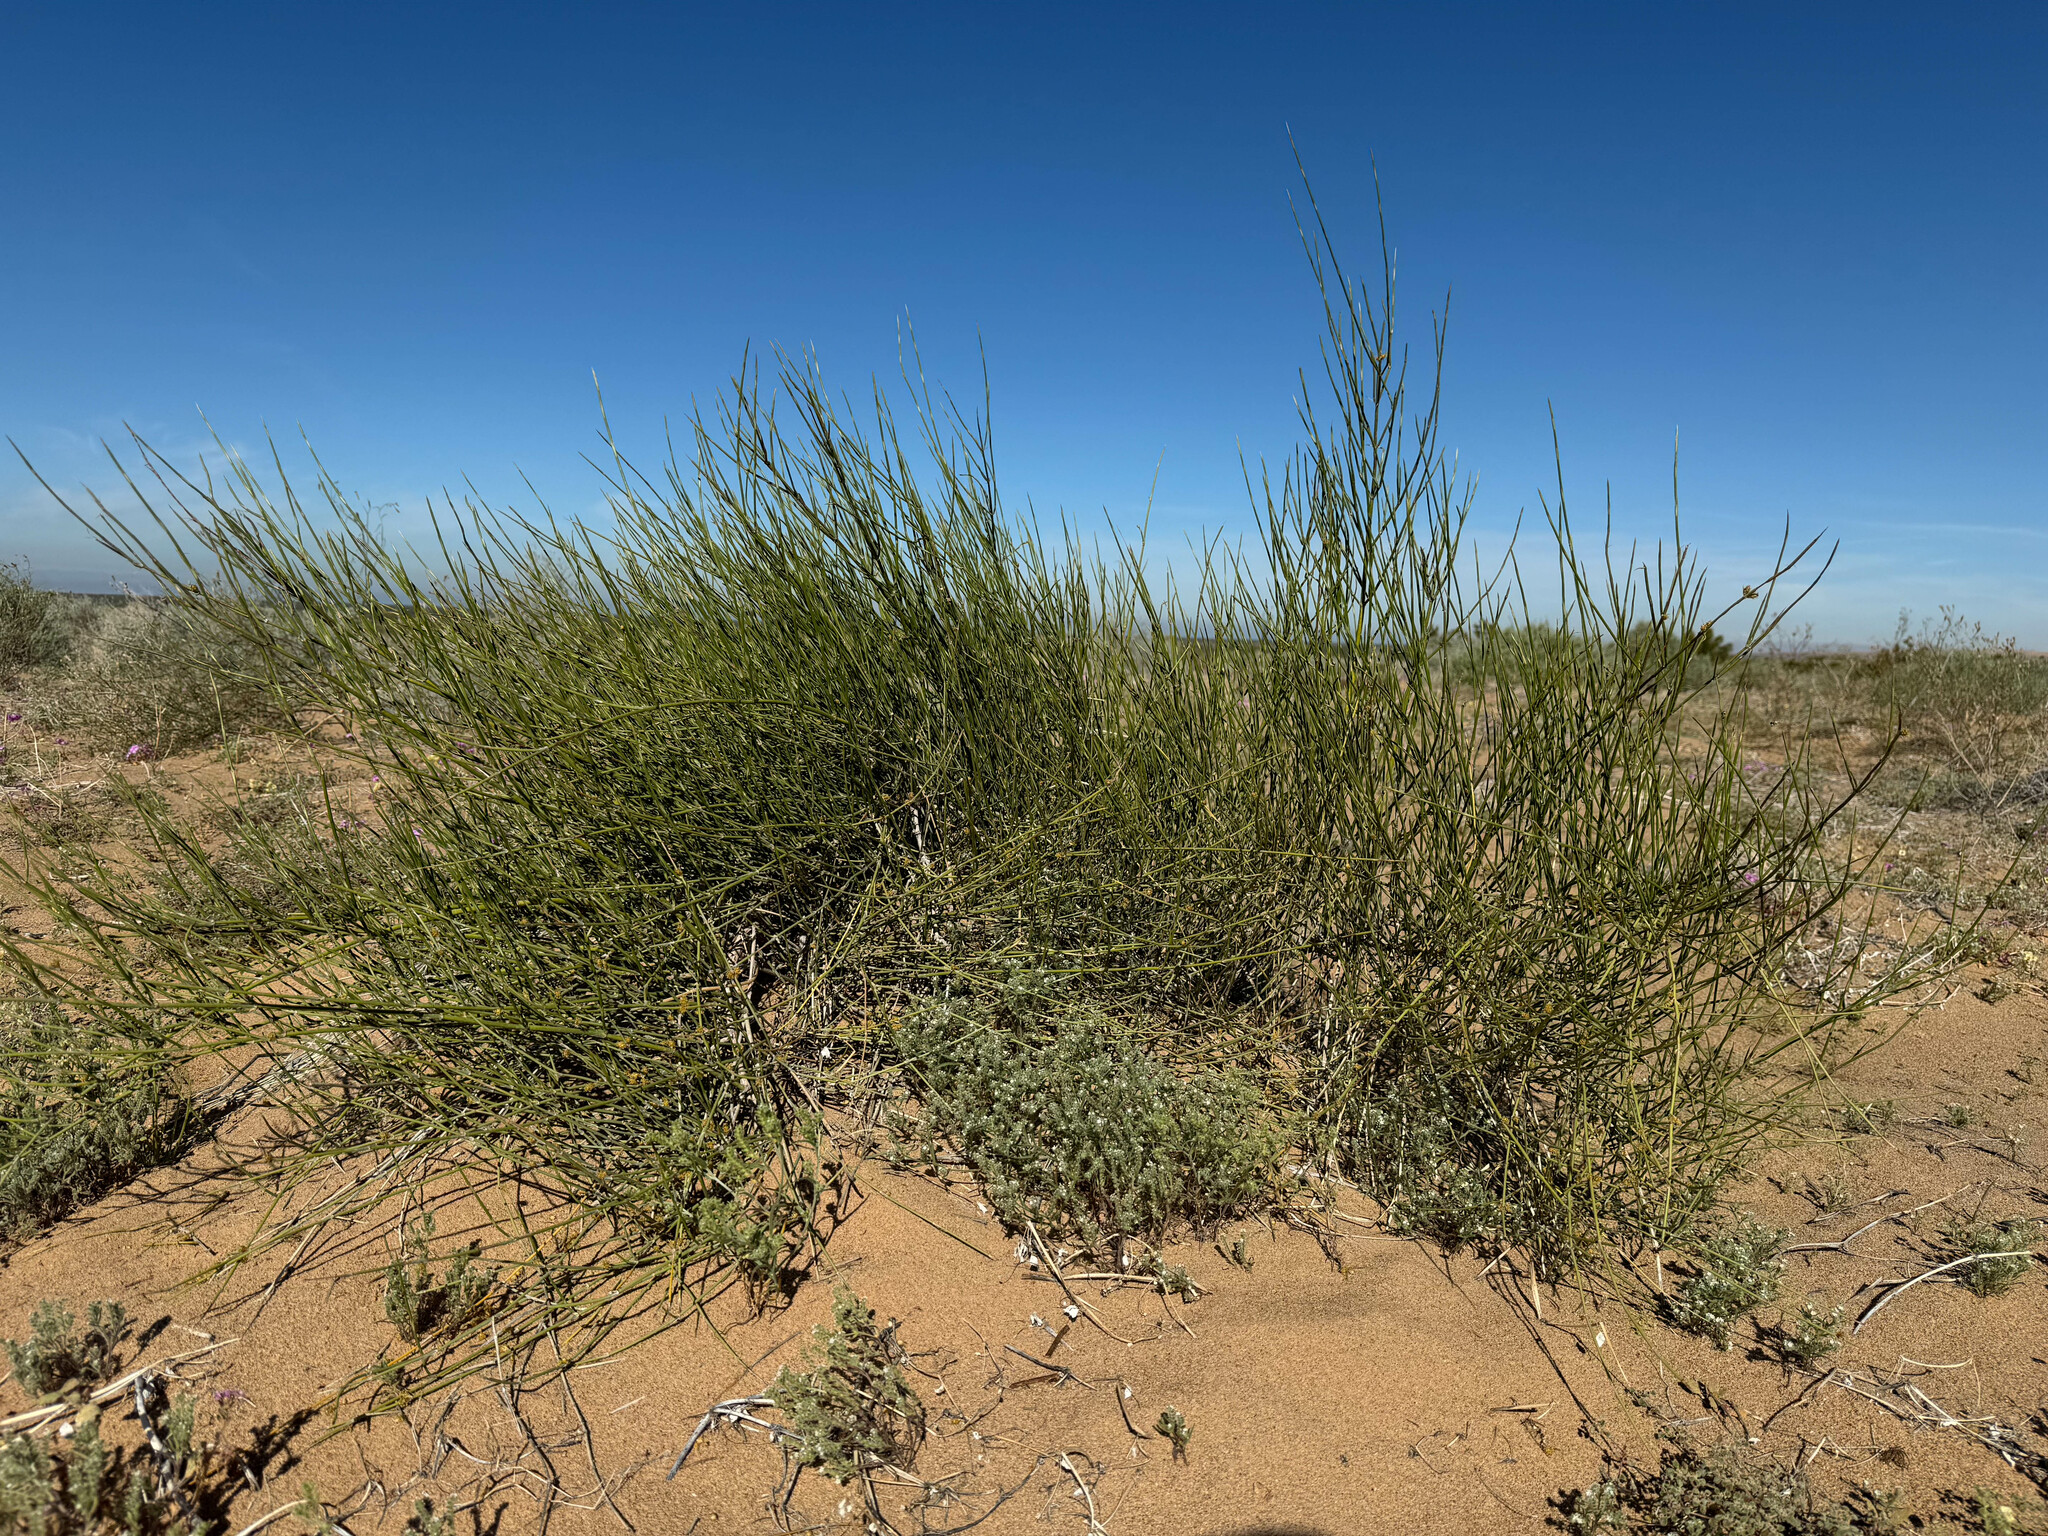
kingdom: Plantae
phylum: Tracheophyta
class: Gnetopsida
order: Ephedrales
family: Ephedraceae
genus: Ephedra
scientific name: Ephedra trifurca
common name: Mexican-tea
